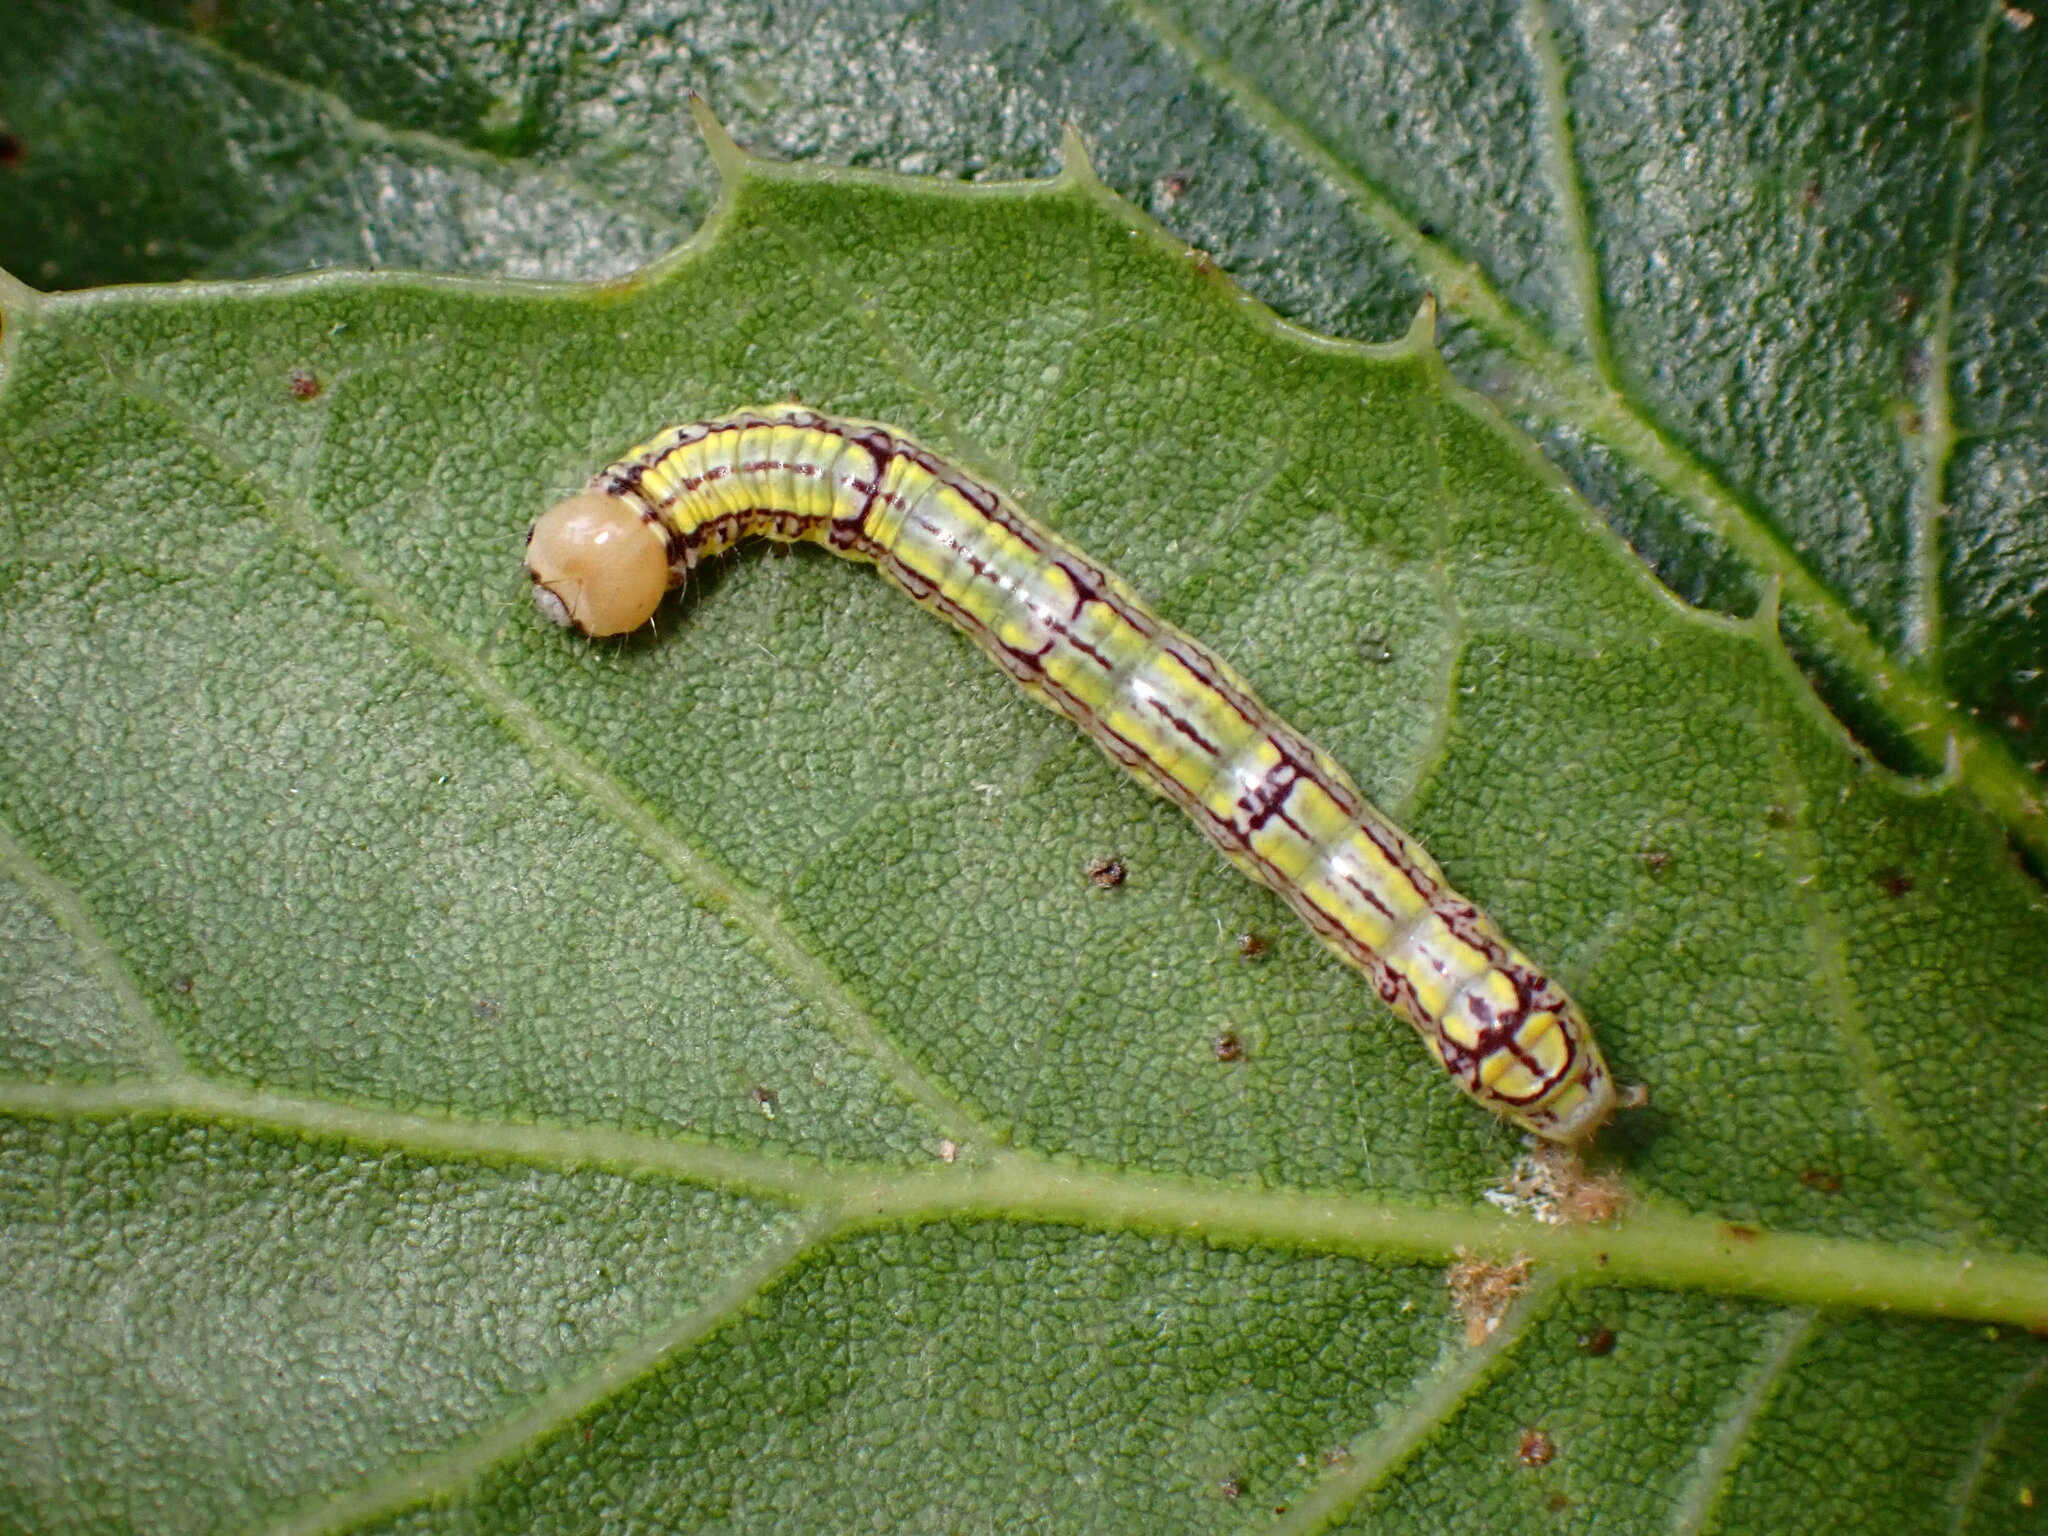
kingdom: Animalia
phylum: Arthropoda
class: Insecta
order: Lepidoptera
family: Notodontidae
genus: Phryganidia
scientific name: Phryganidia californica
